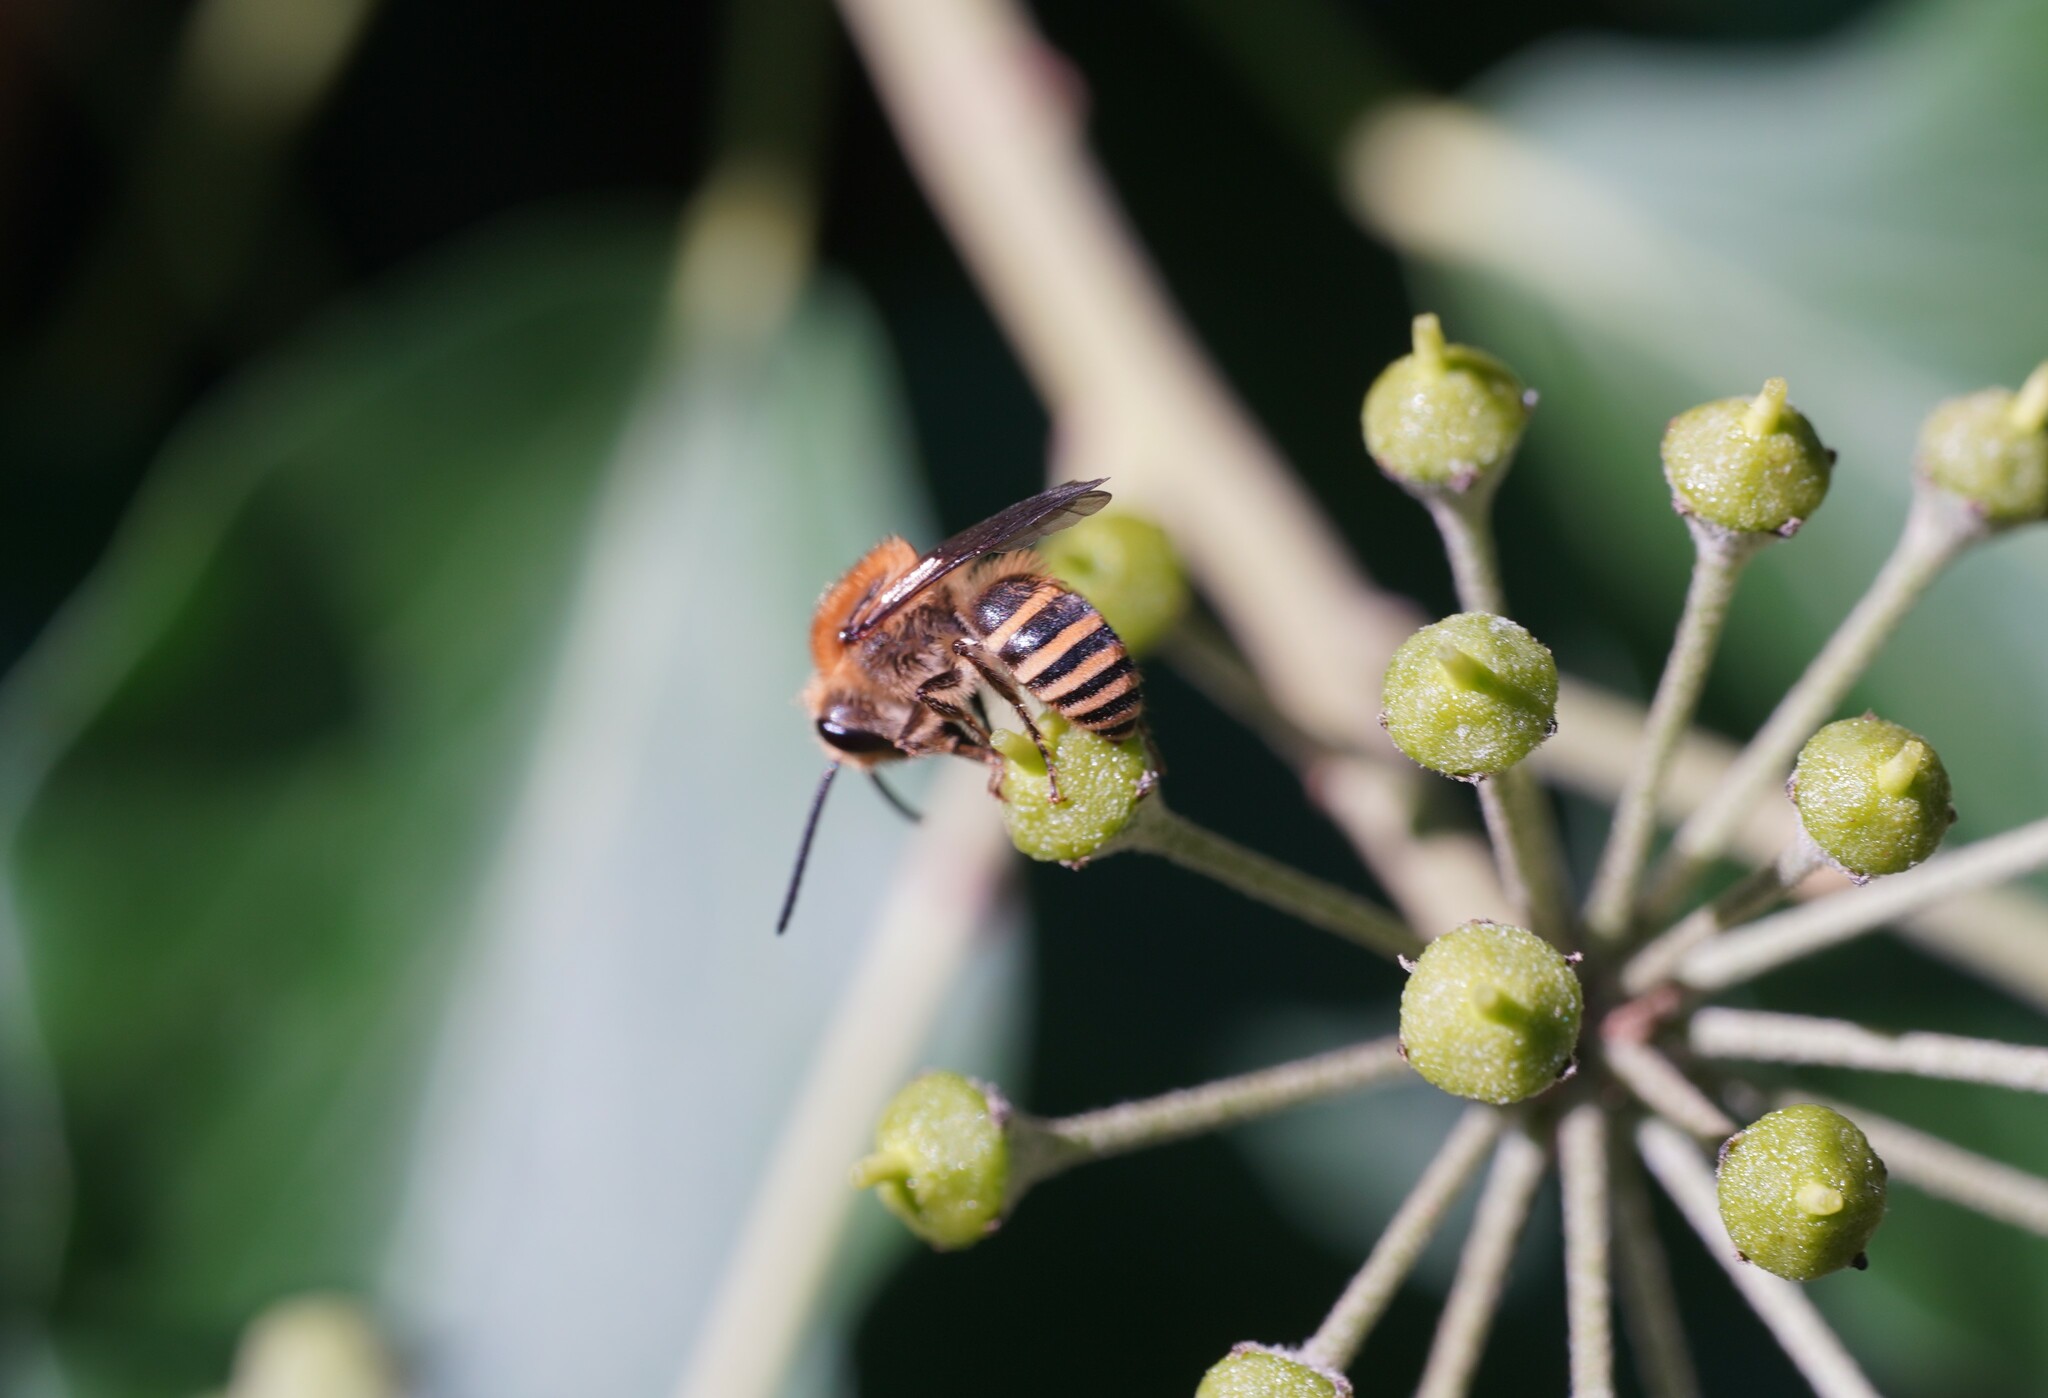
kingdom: Animalia
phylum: Arthropoda
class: Insecta
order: Hymenoptera
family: Colletidae
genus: Colletes
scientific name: Colletes hederae
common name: Ivy bee
